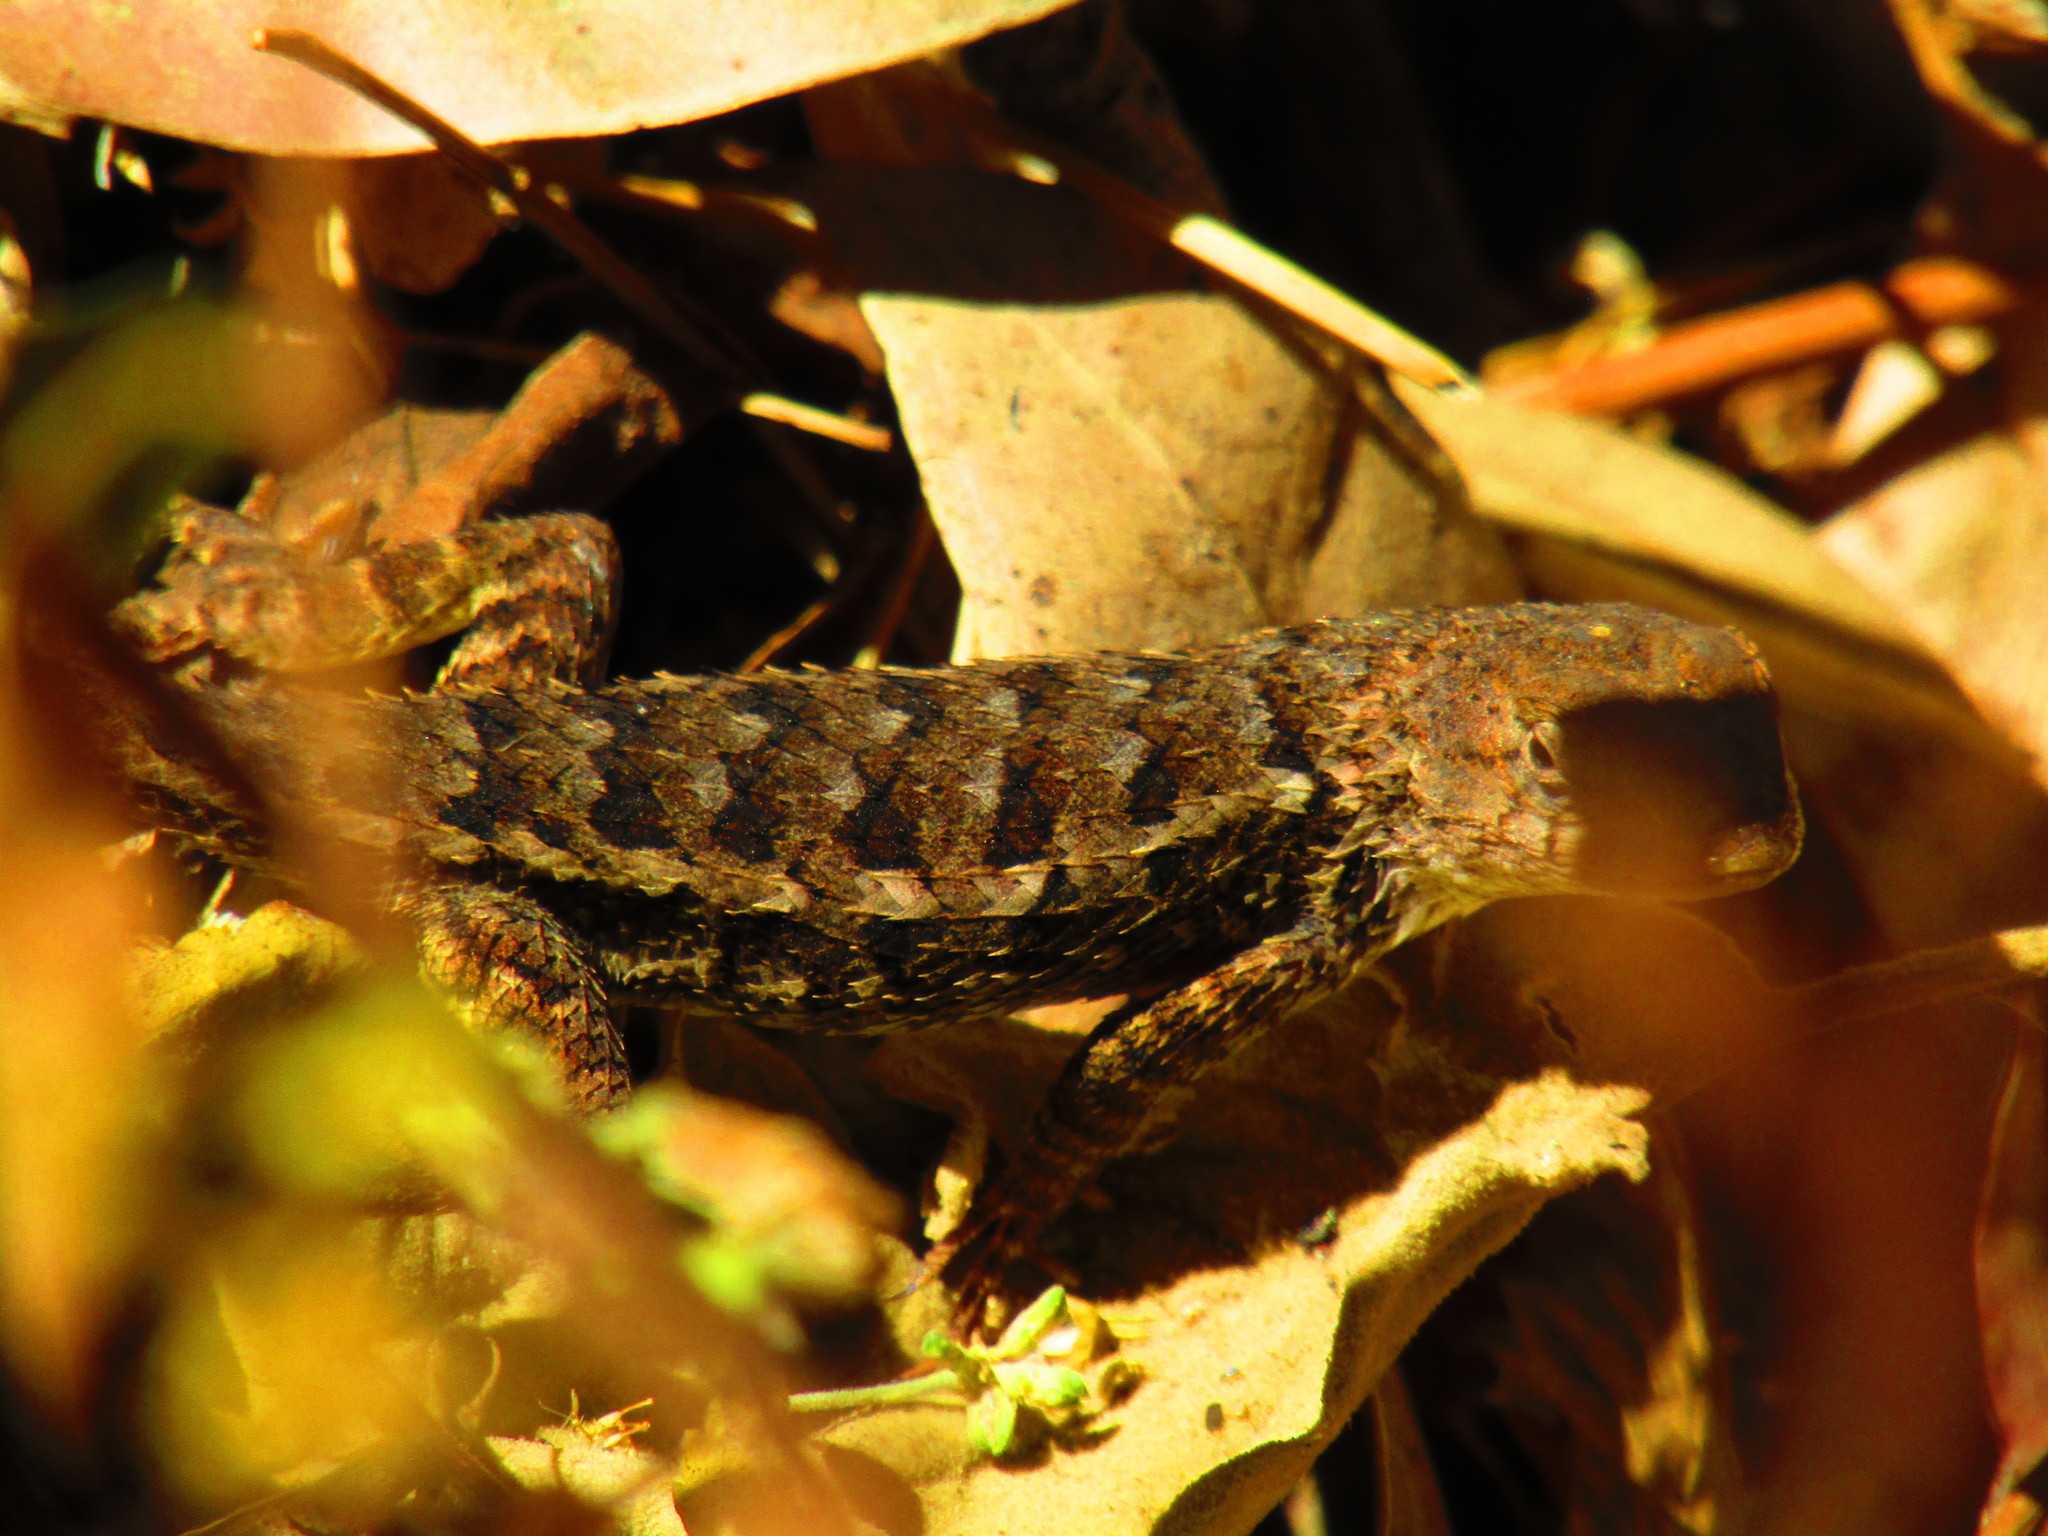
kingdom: Animalia
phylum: Chordata
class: Squamata
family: Phrynosomatidae
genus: Sceloporus
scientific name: Sceloporus albiventris
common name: White-bellied rough lizard
